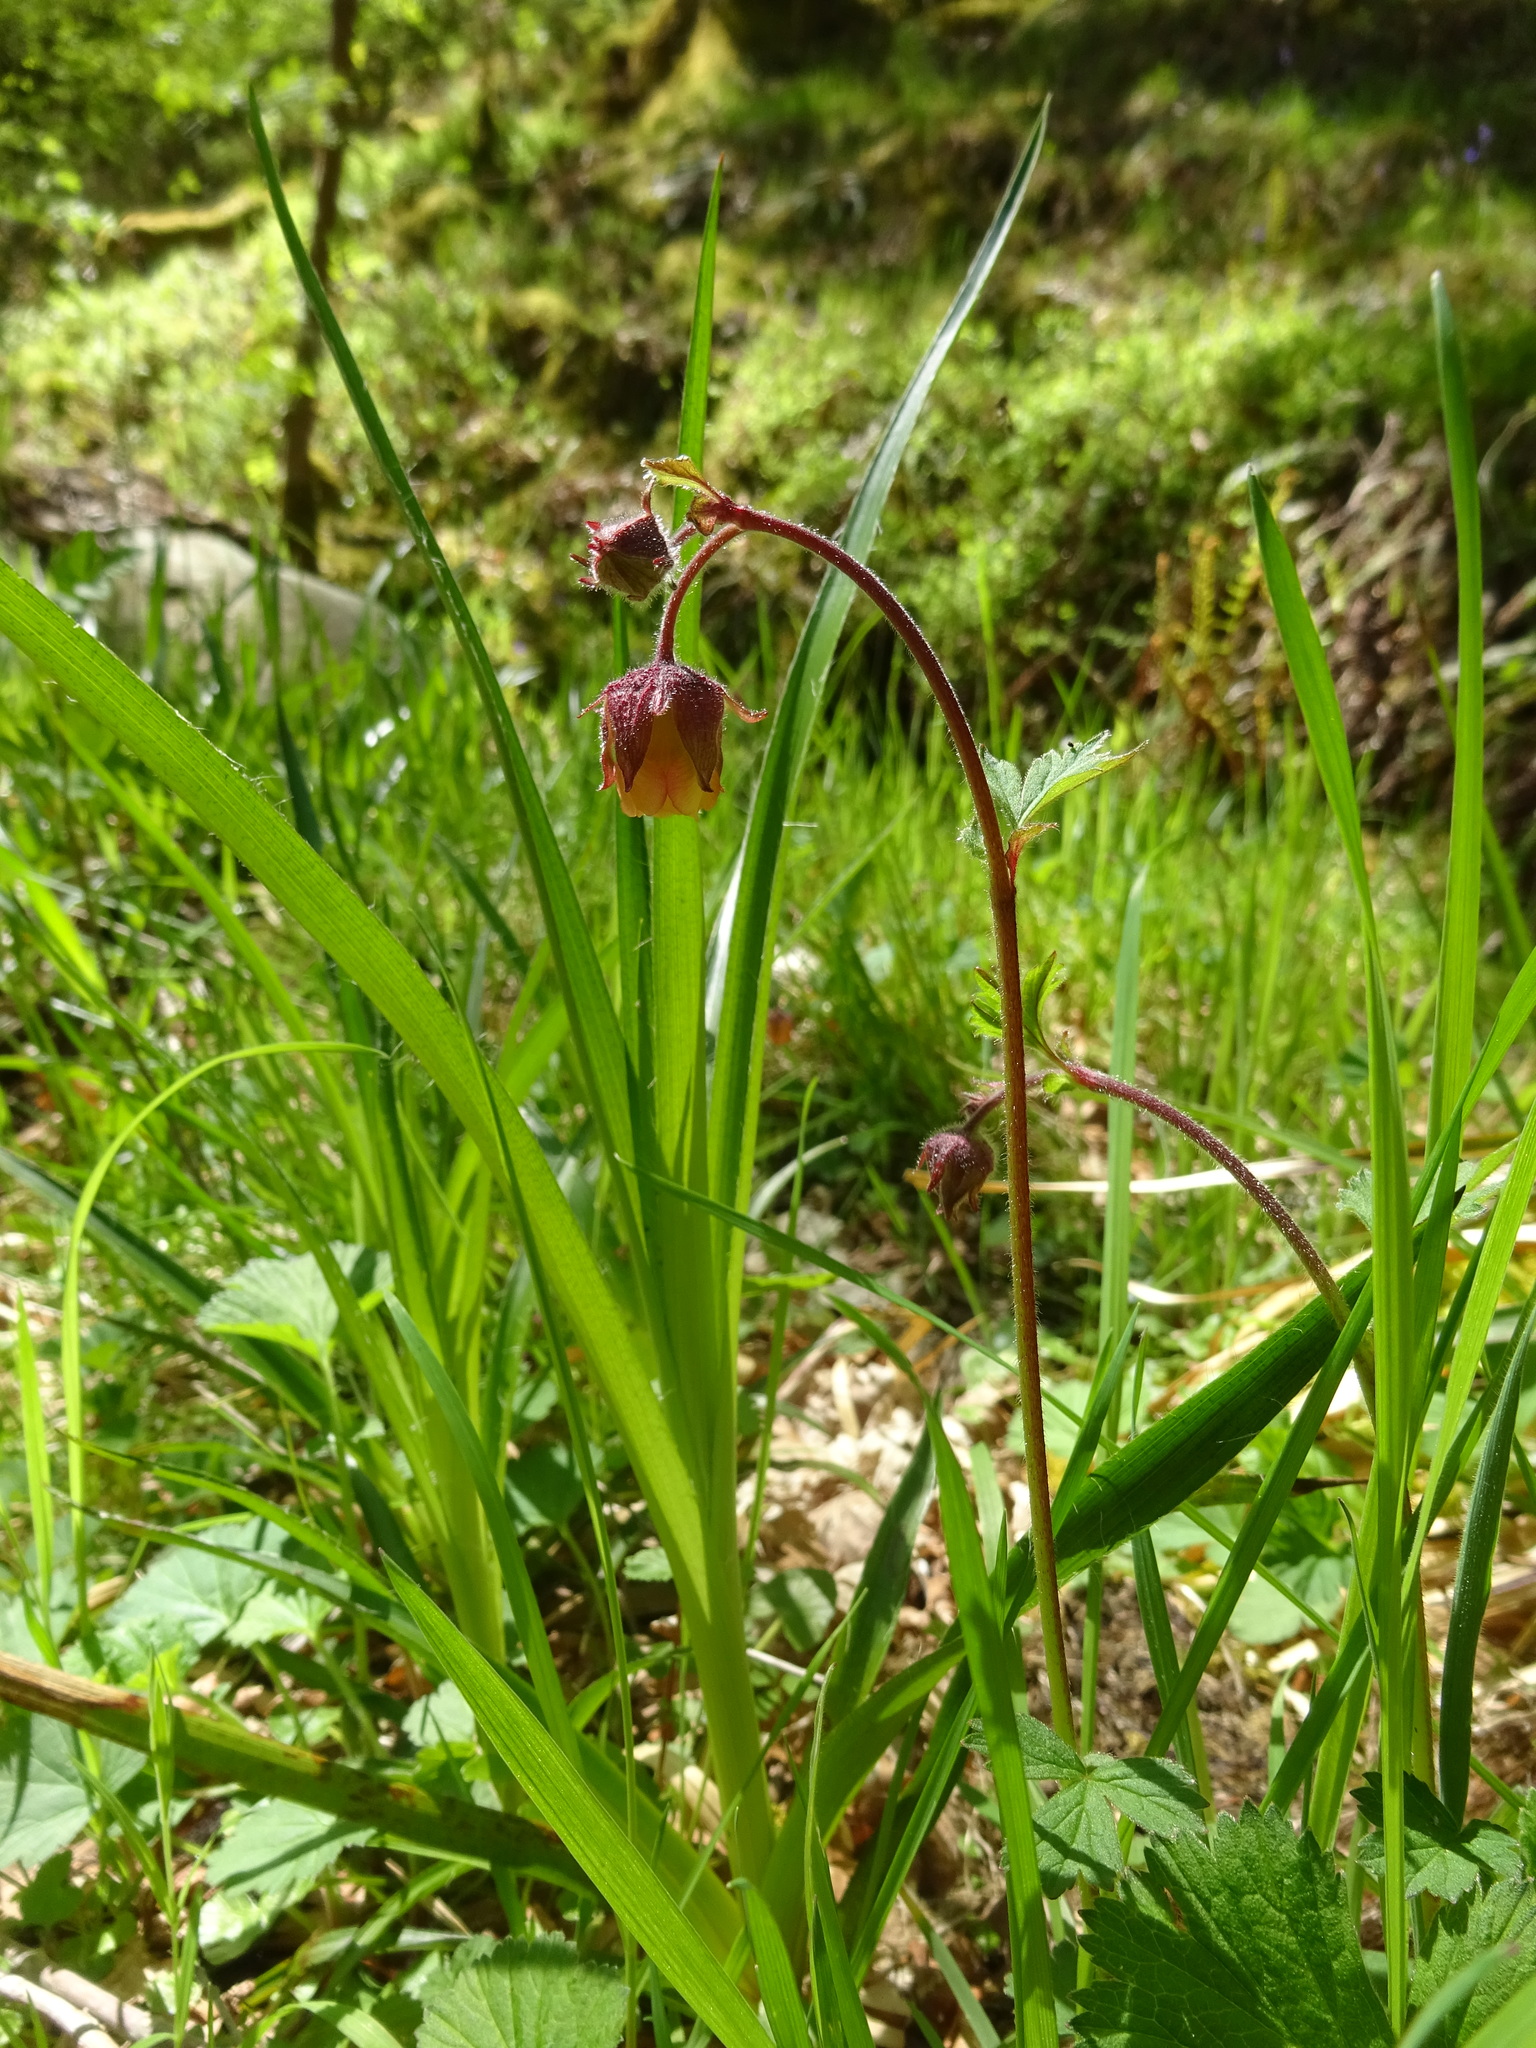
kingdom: Plantae
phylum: Tracheophyta
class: Magnoliopsida
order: Rosales
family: Rosaceae
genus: Geum
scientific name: Geum rivale
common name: Water avens
